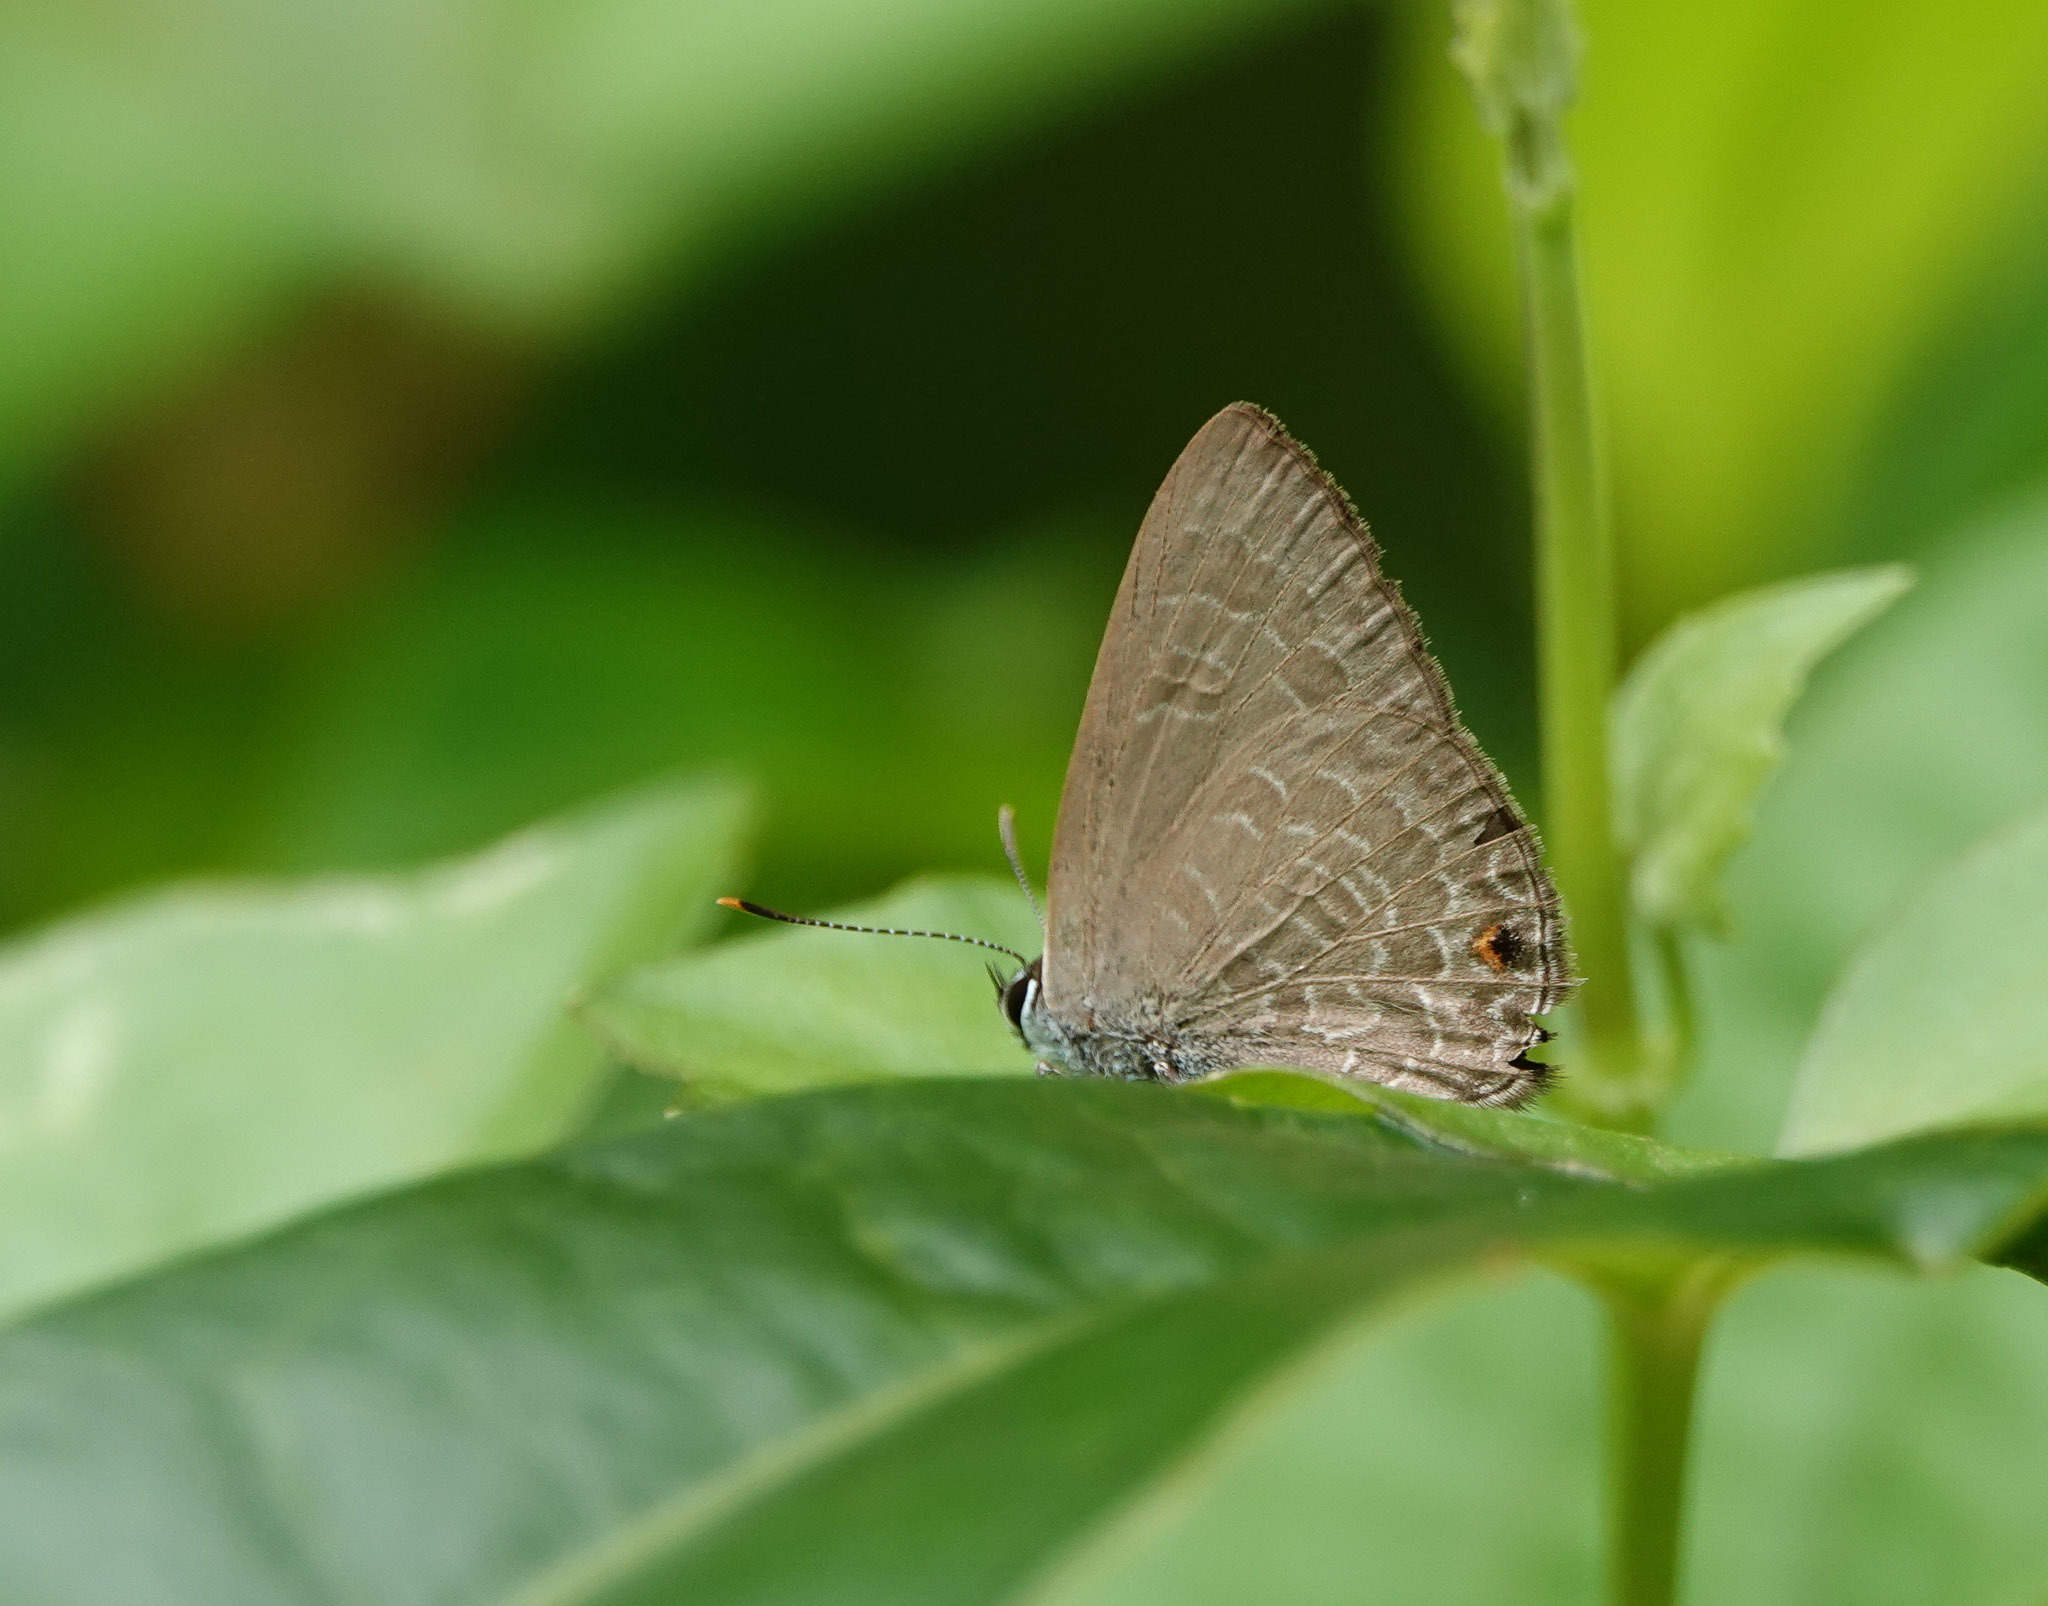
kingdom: Animalia
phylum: Arthropoda
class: Insecta
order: Lepidoptera
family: Lycaenidae
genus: Anthene
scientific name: Anthene emolus
